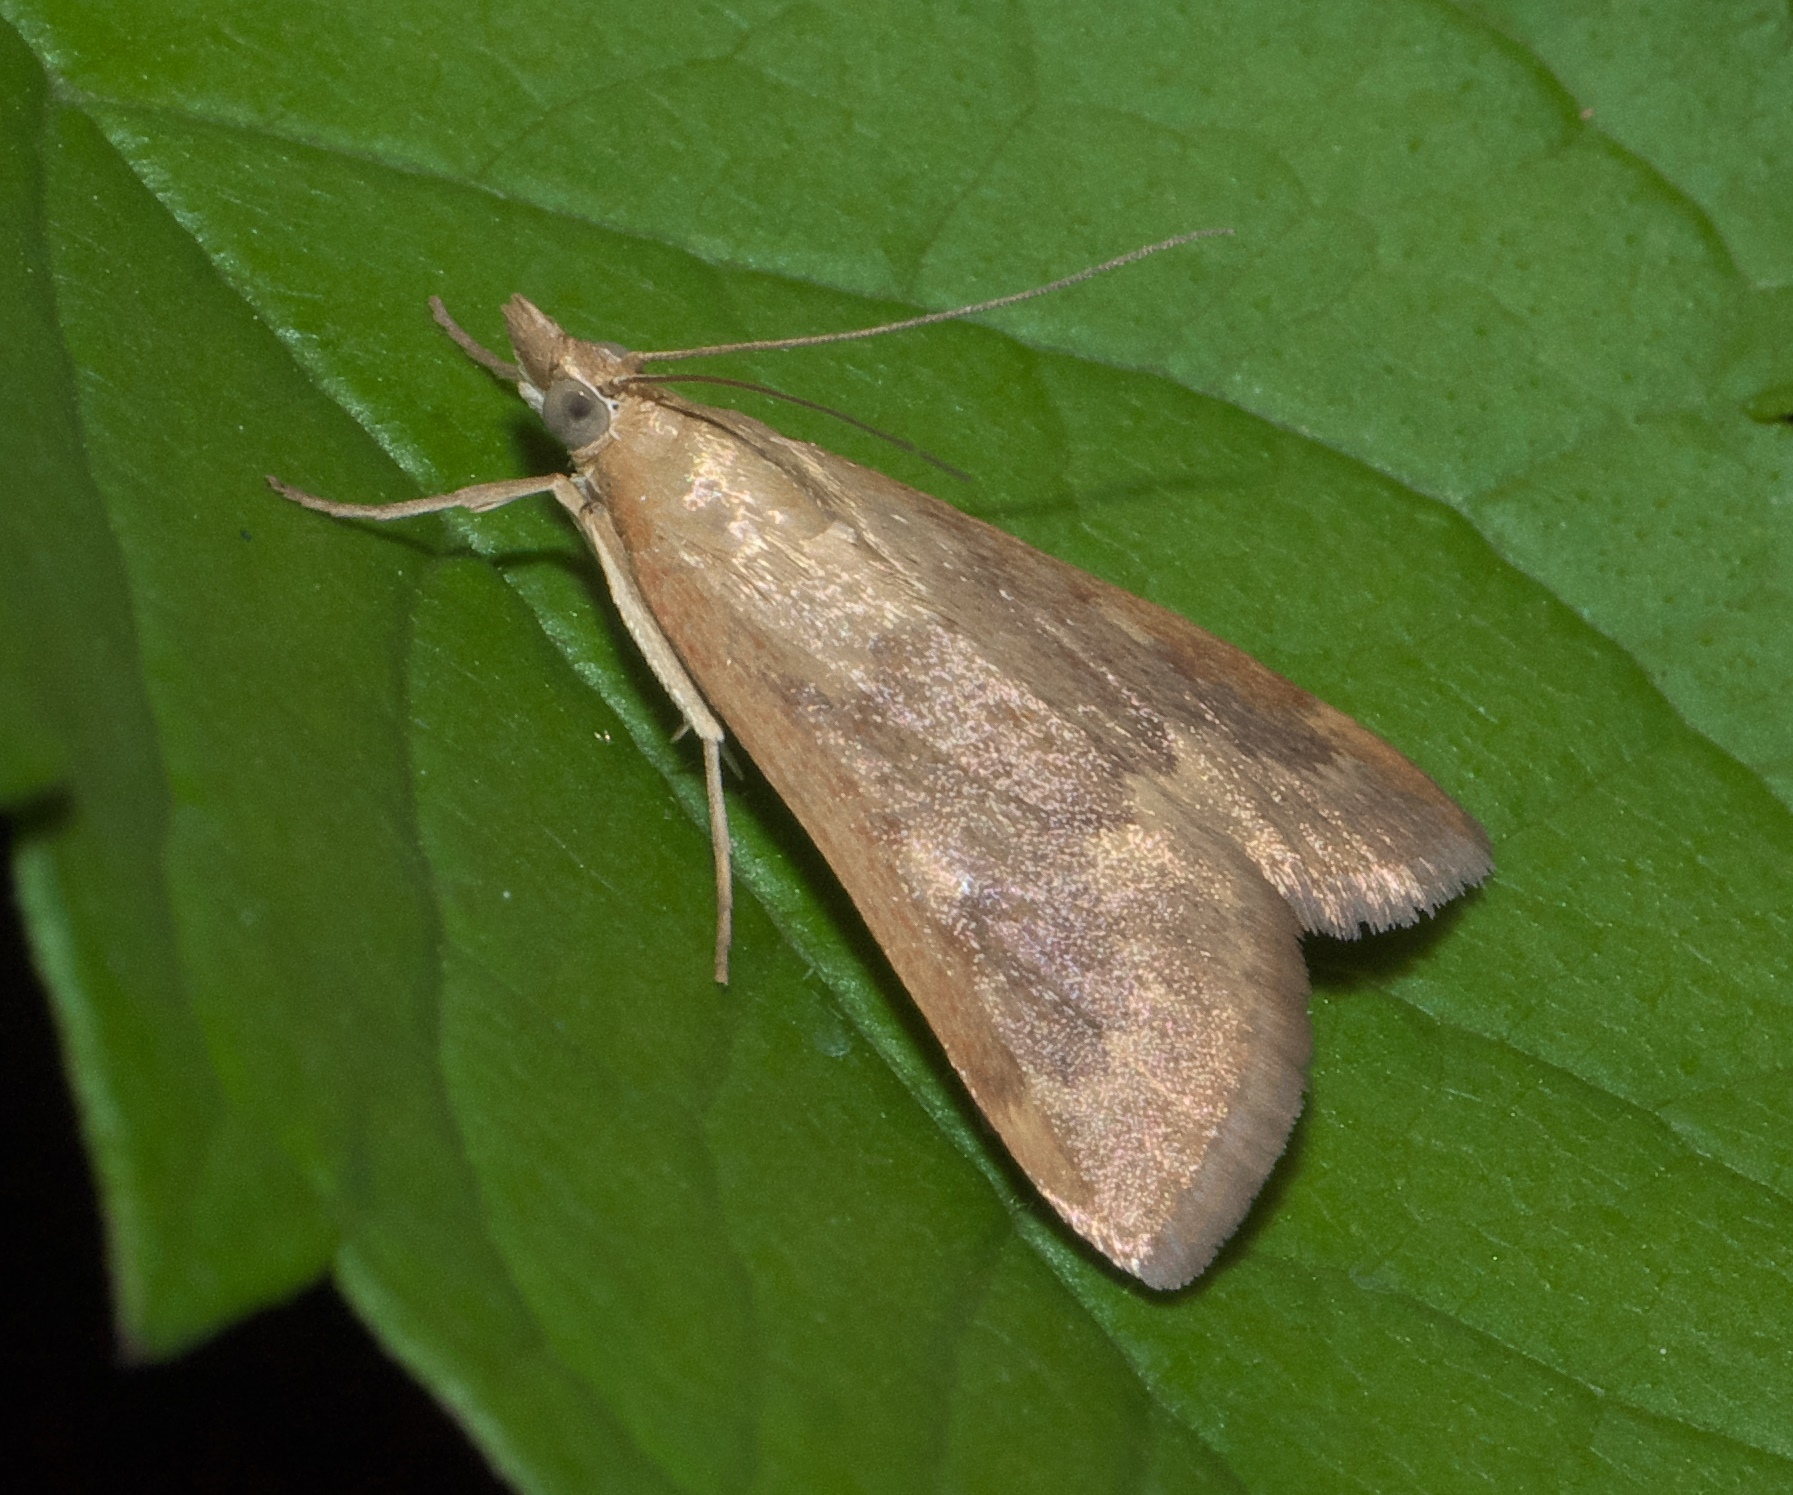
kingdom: Animalia
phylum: Arthropoda
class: Insecta
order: Lepidoptera
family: Crambidae
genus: Achyra
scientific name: Achyra rantalis
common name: Garden webworm
